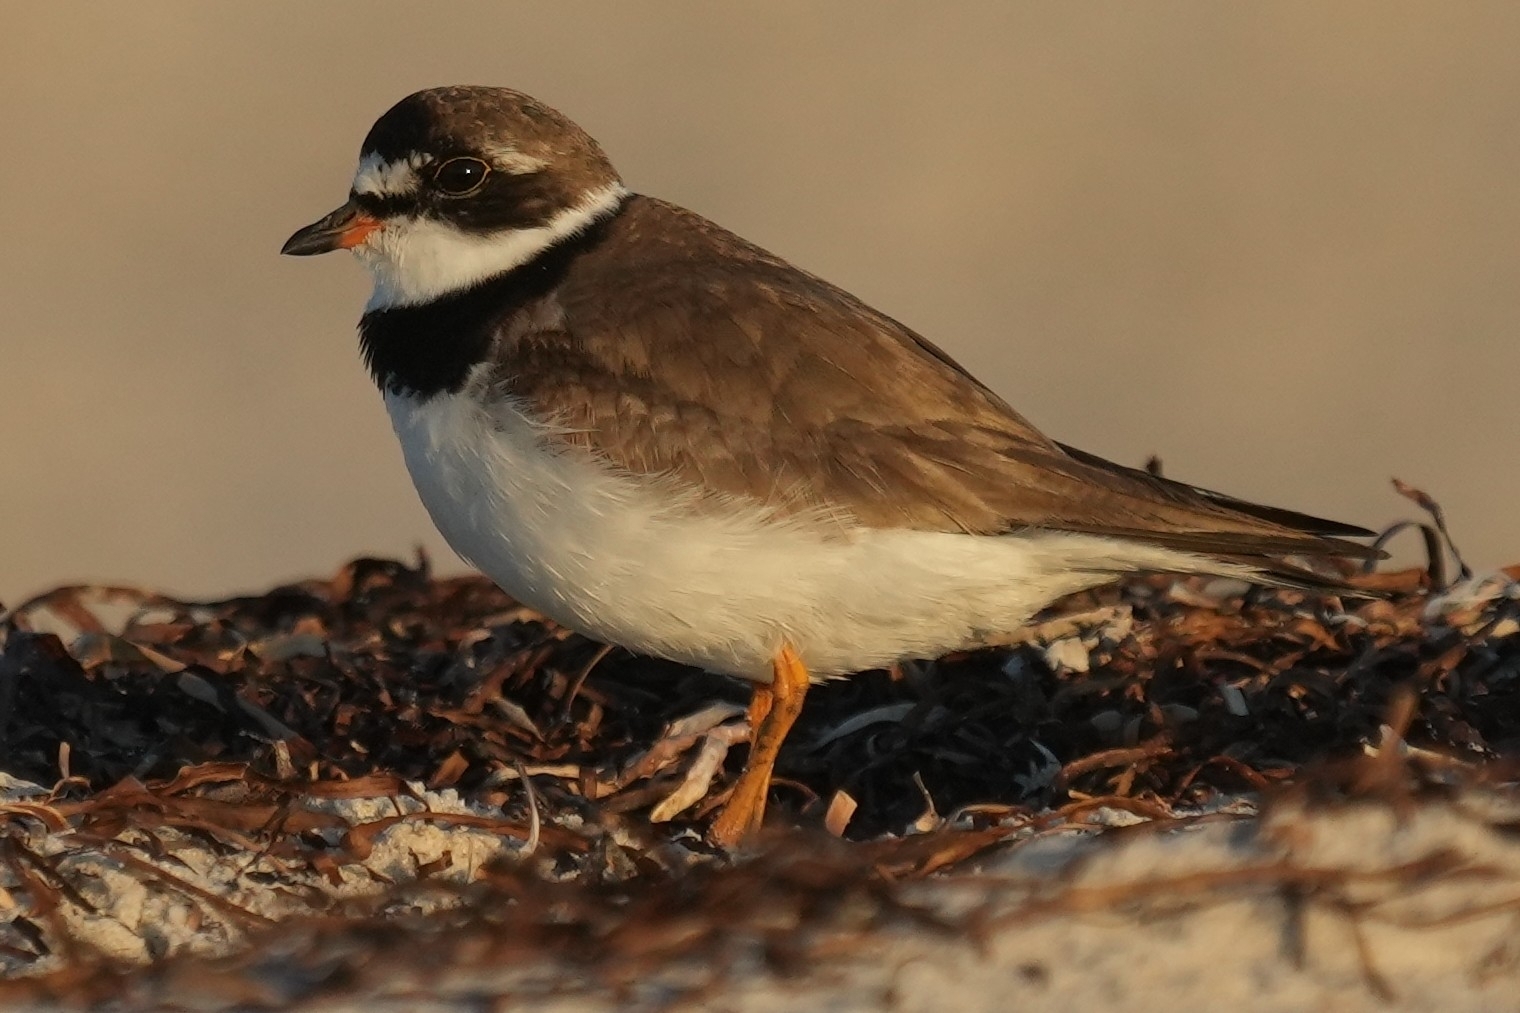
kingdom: Animalia
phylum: Chordata
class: Aves
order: Charadriiformes
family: Charadriidae
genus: Charadrius
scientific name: Charadrius semipalmatus
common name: Semipalmated plover
